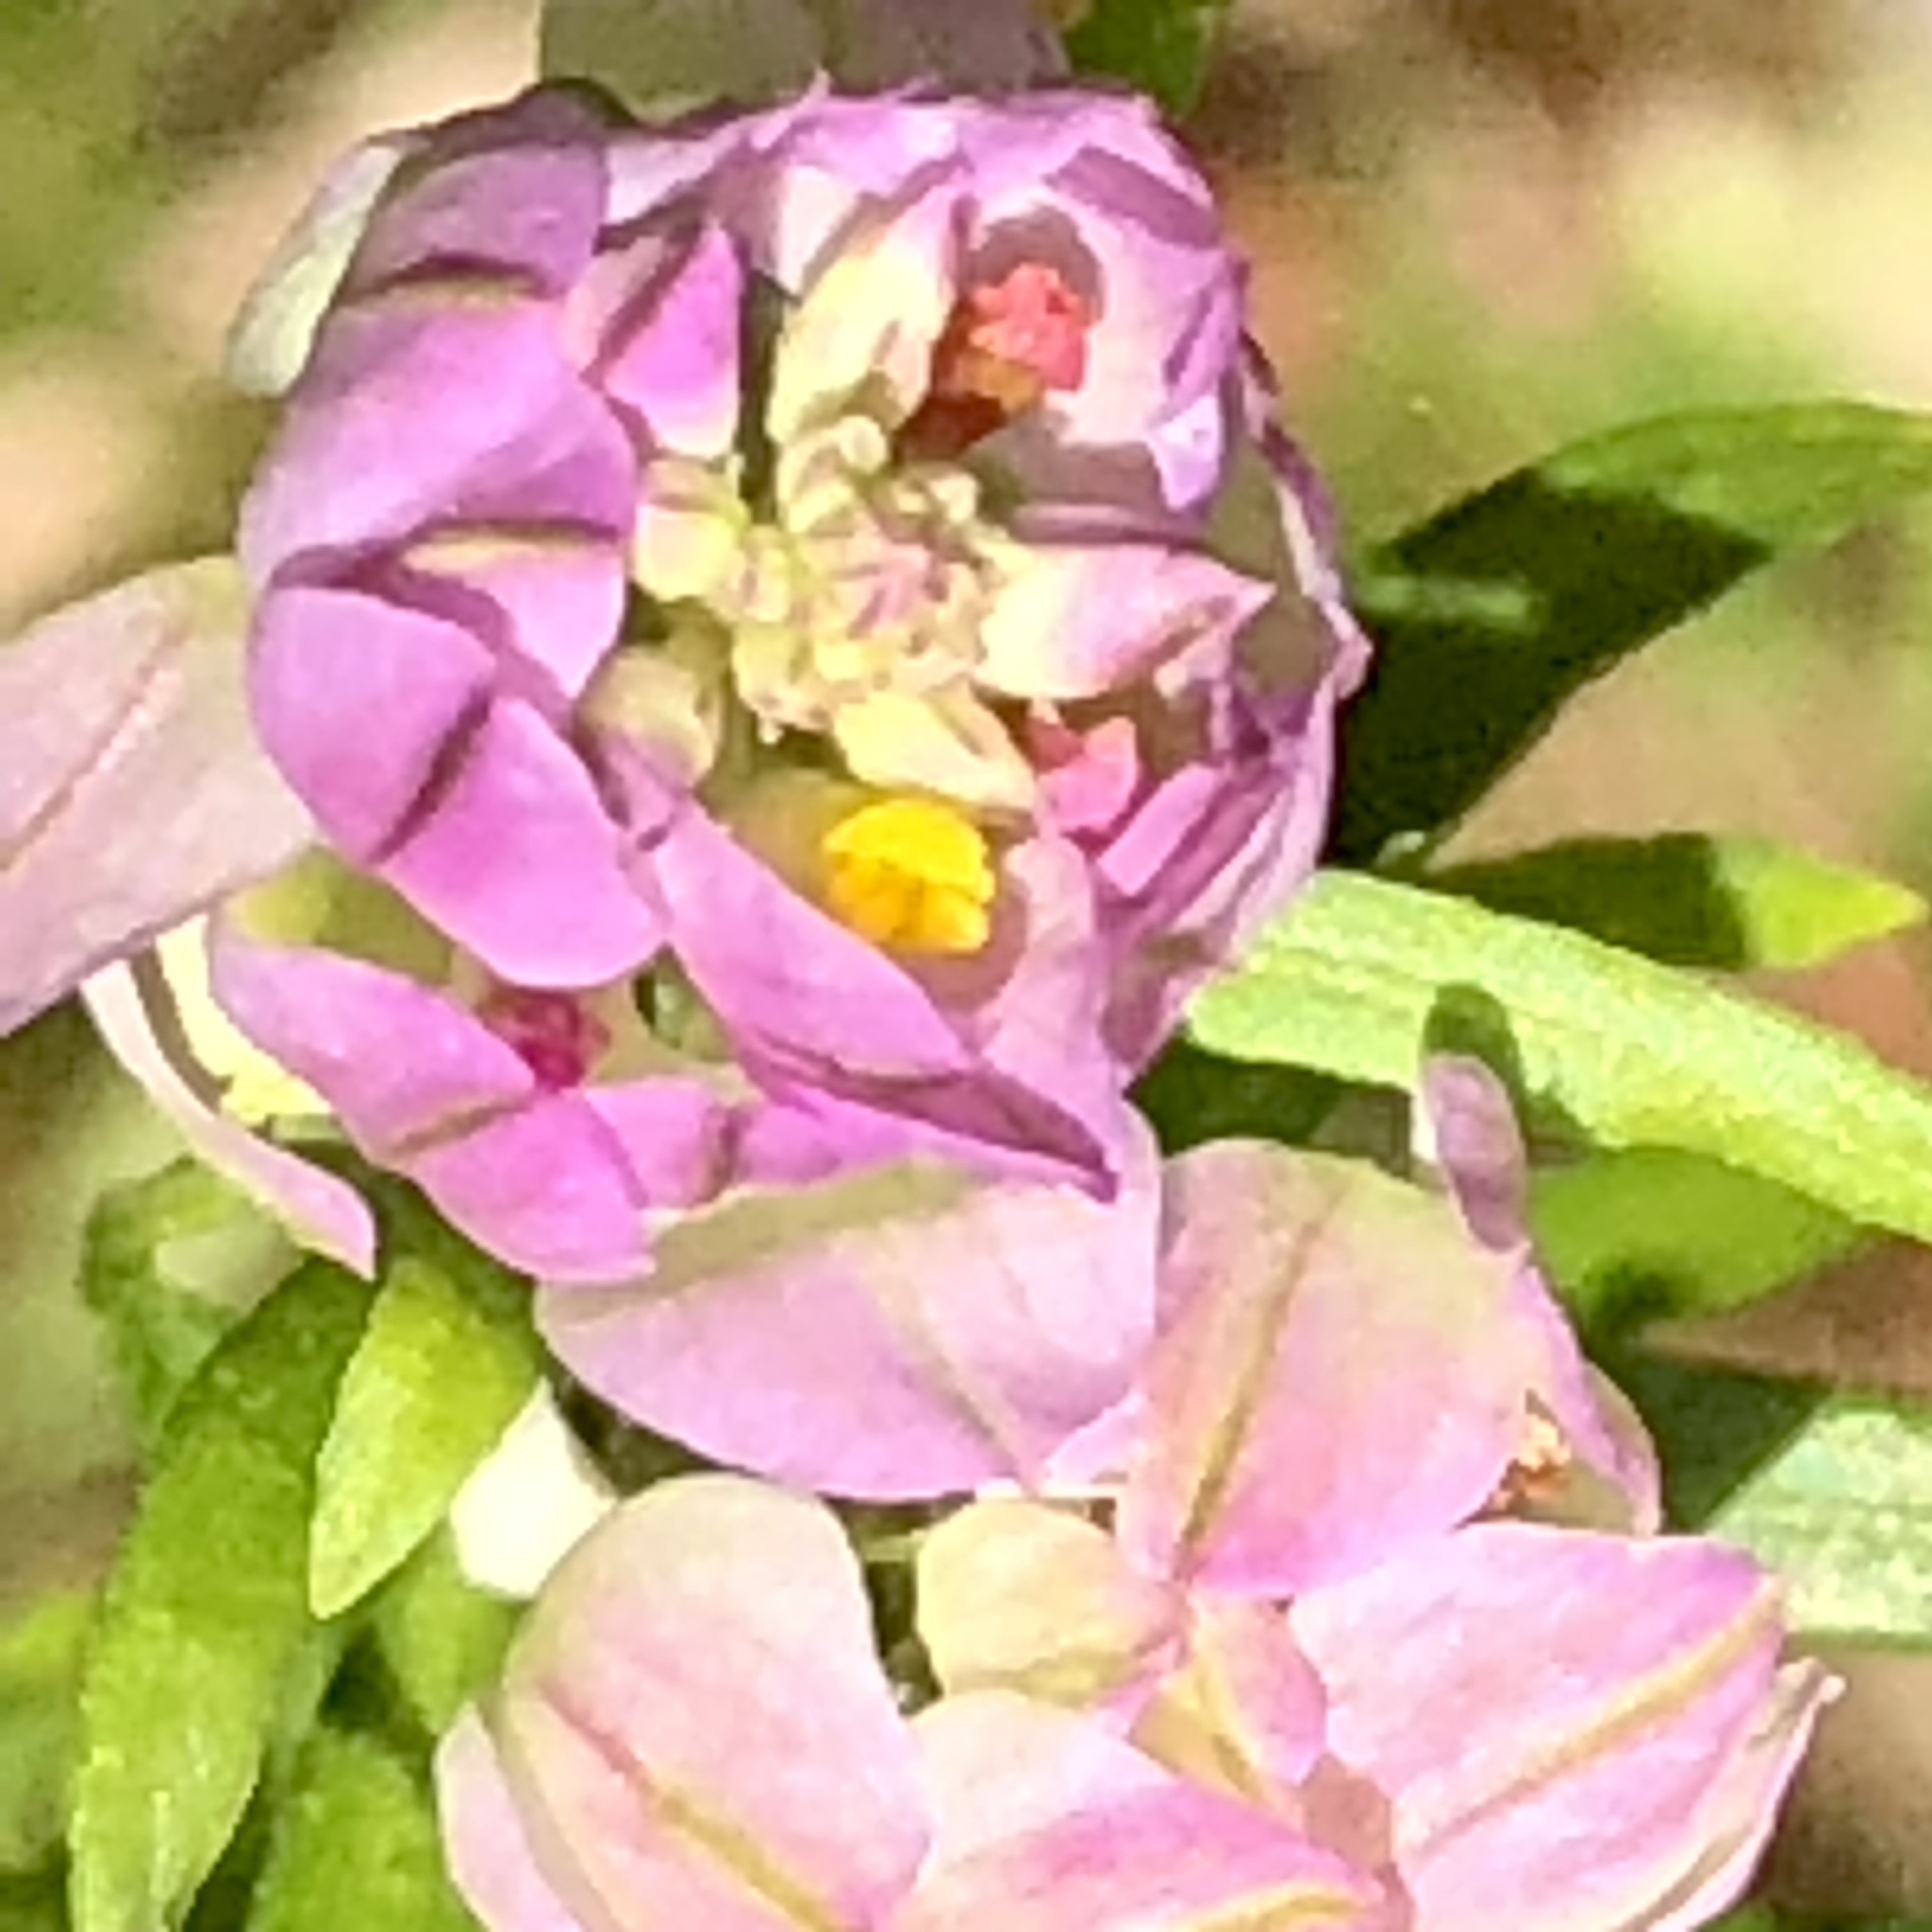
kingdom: Plantae
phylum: Tracheophyta
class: Magnoliopsida
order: Fabales
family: Polygalaceae
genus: Polygala
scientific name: Polygala sanguinea
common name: Blood milkwort
